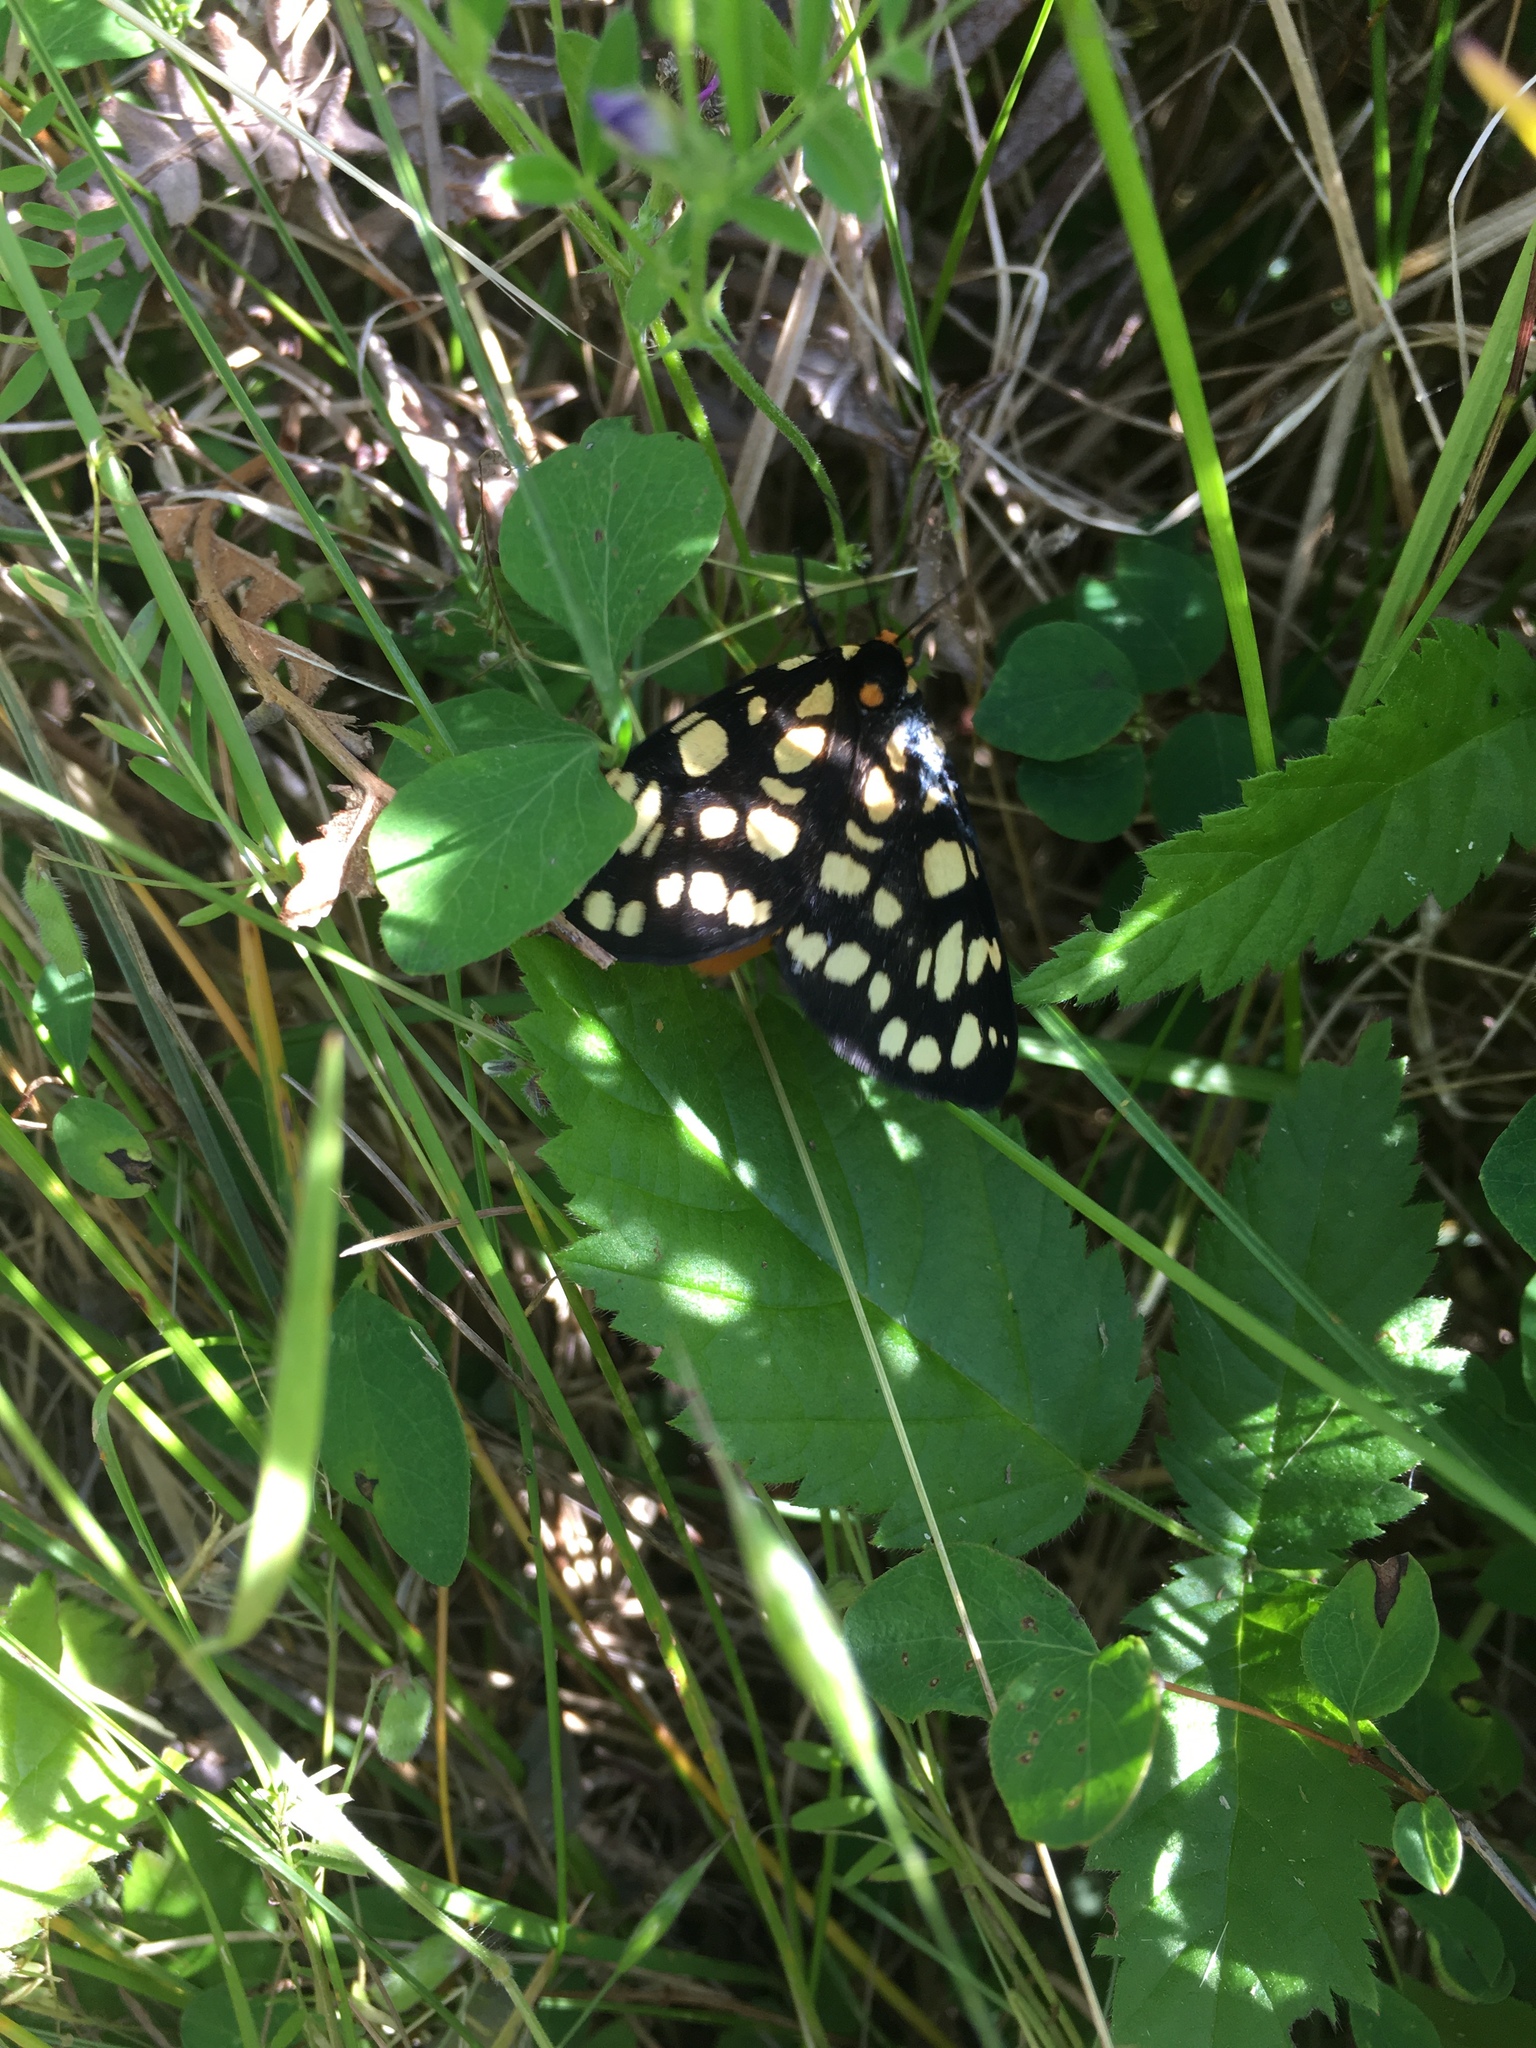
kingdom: Animalia
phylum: Arthropoda
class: Insecta
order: Lepidoptera
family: Erebidae
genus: Arctia
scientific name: Arctia tigrina
